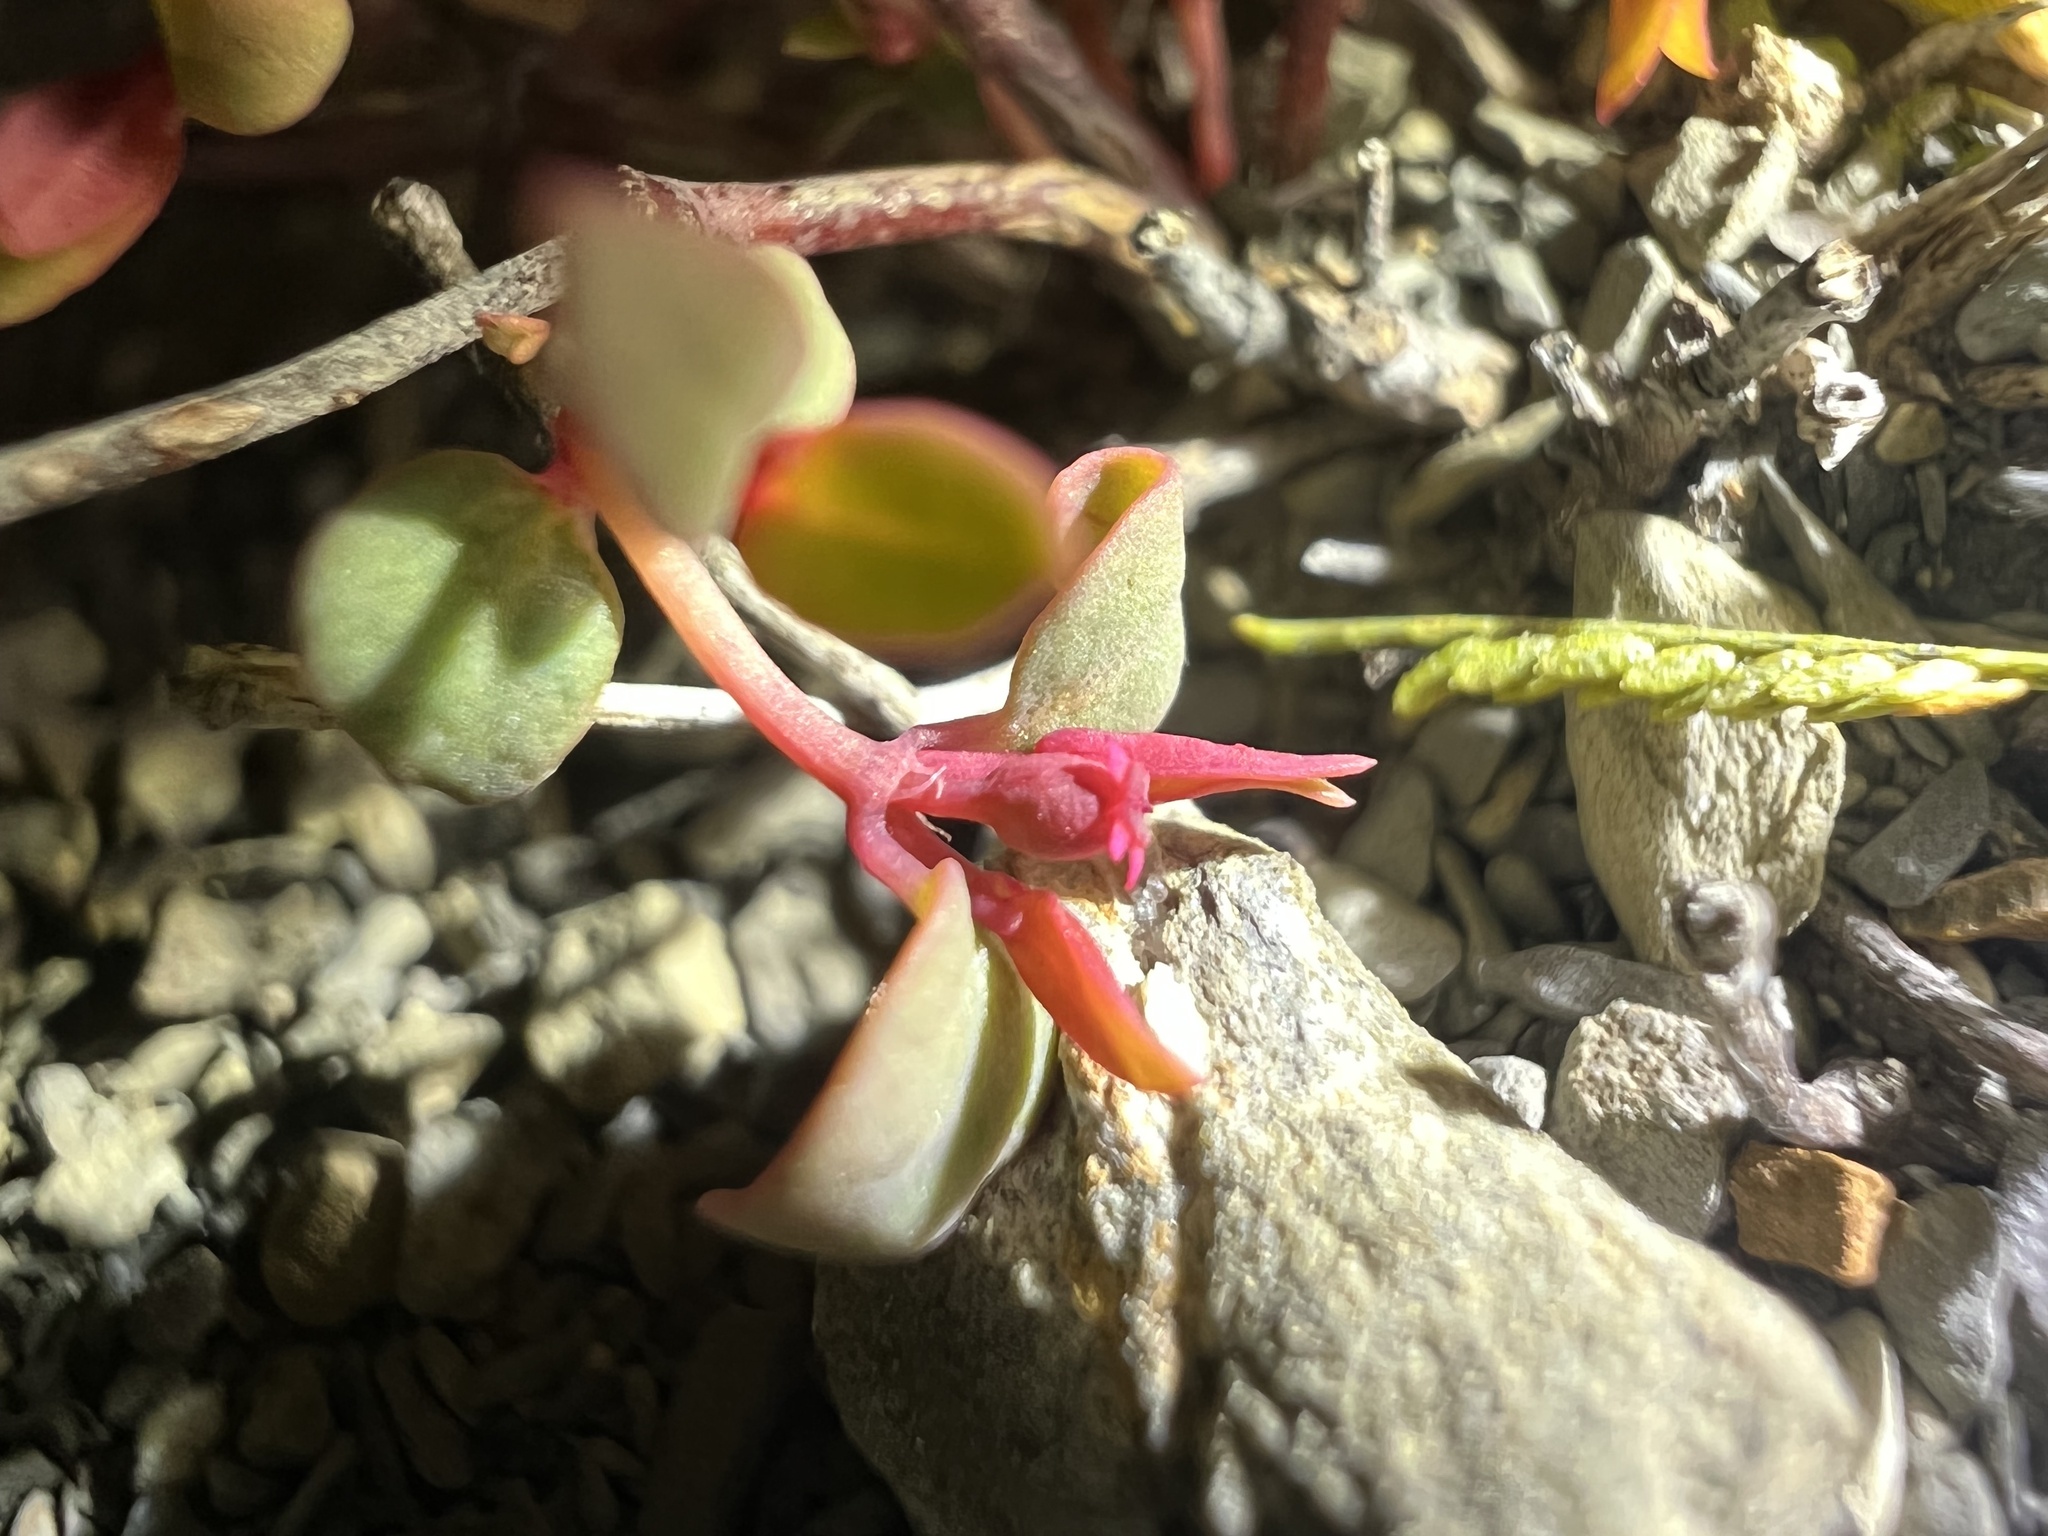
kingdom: Plantae
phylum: Tracheophyta
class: Magnoliopsida
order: Malpighiales
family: Euphorbiaceae
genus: Euphorbia
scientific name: Euphorbia fendleri
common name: Fendler's euphorbia
